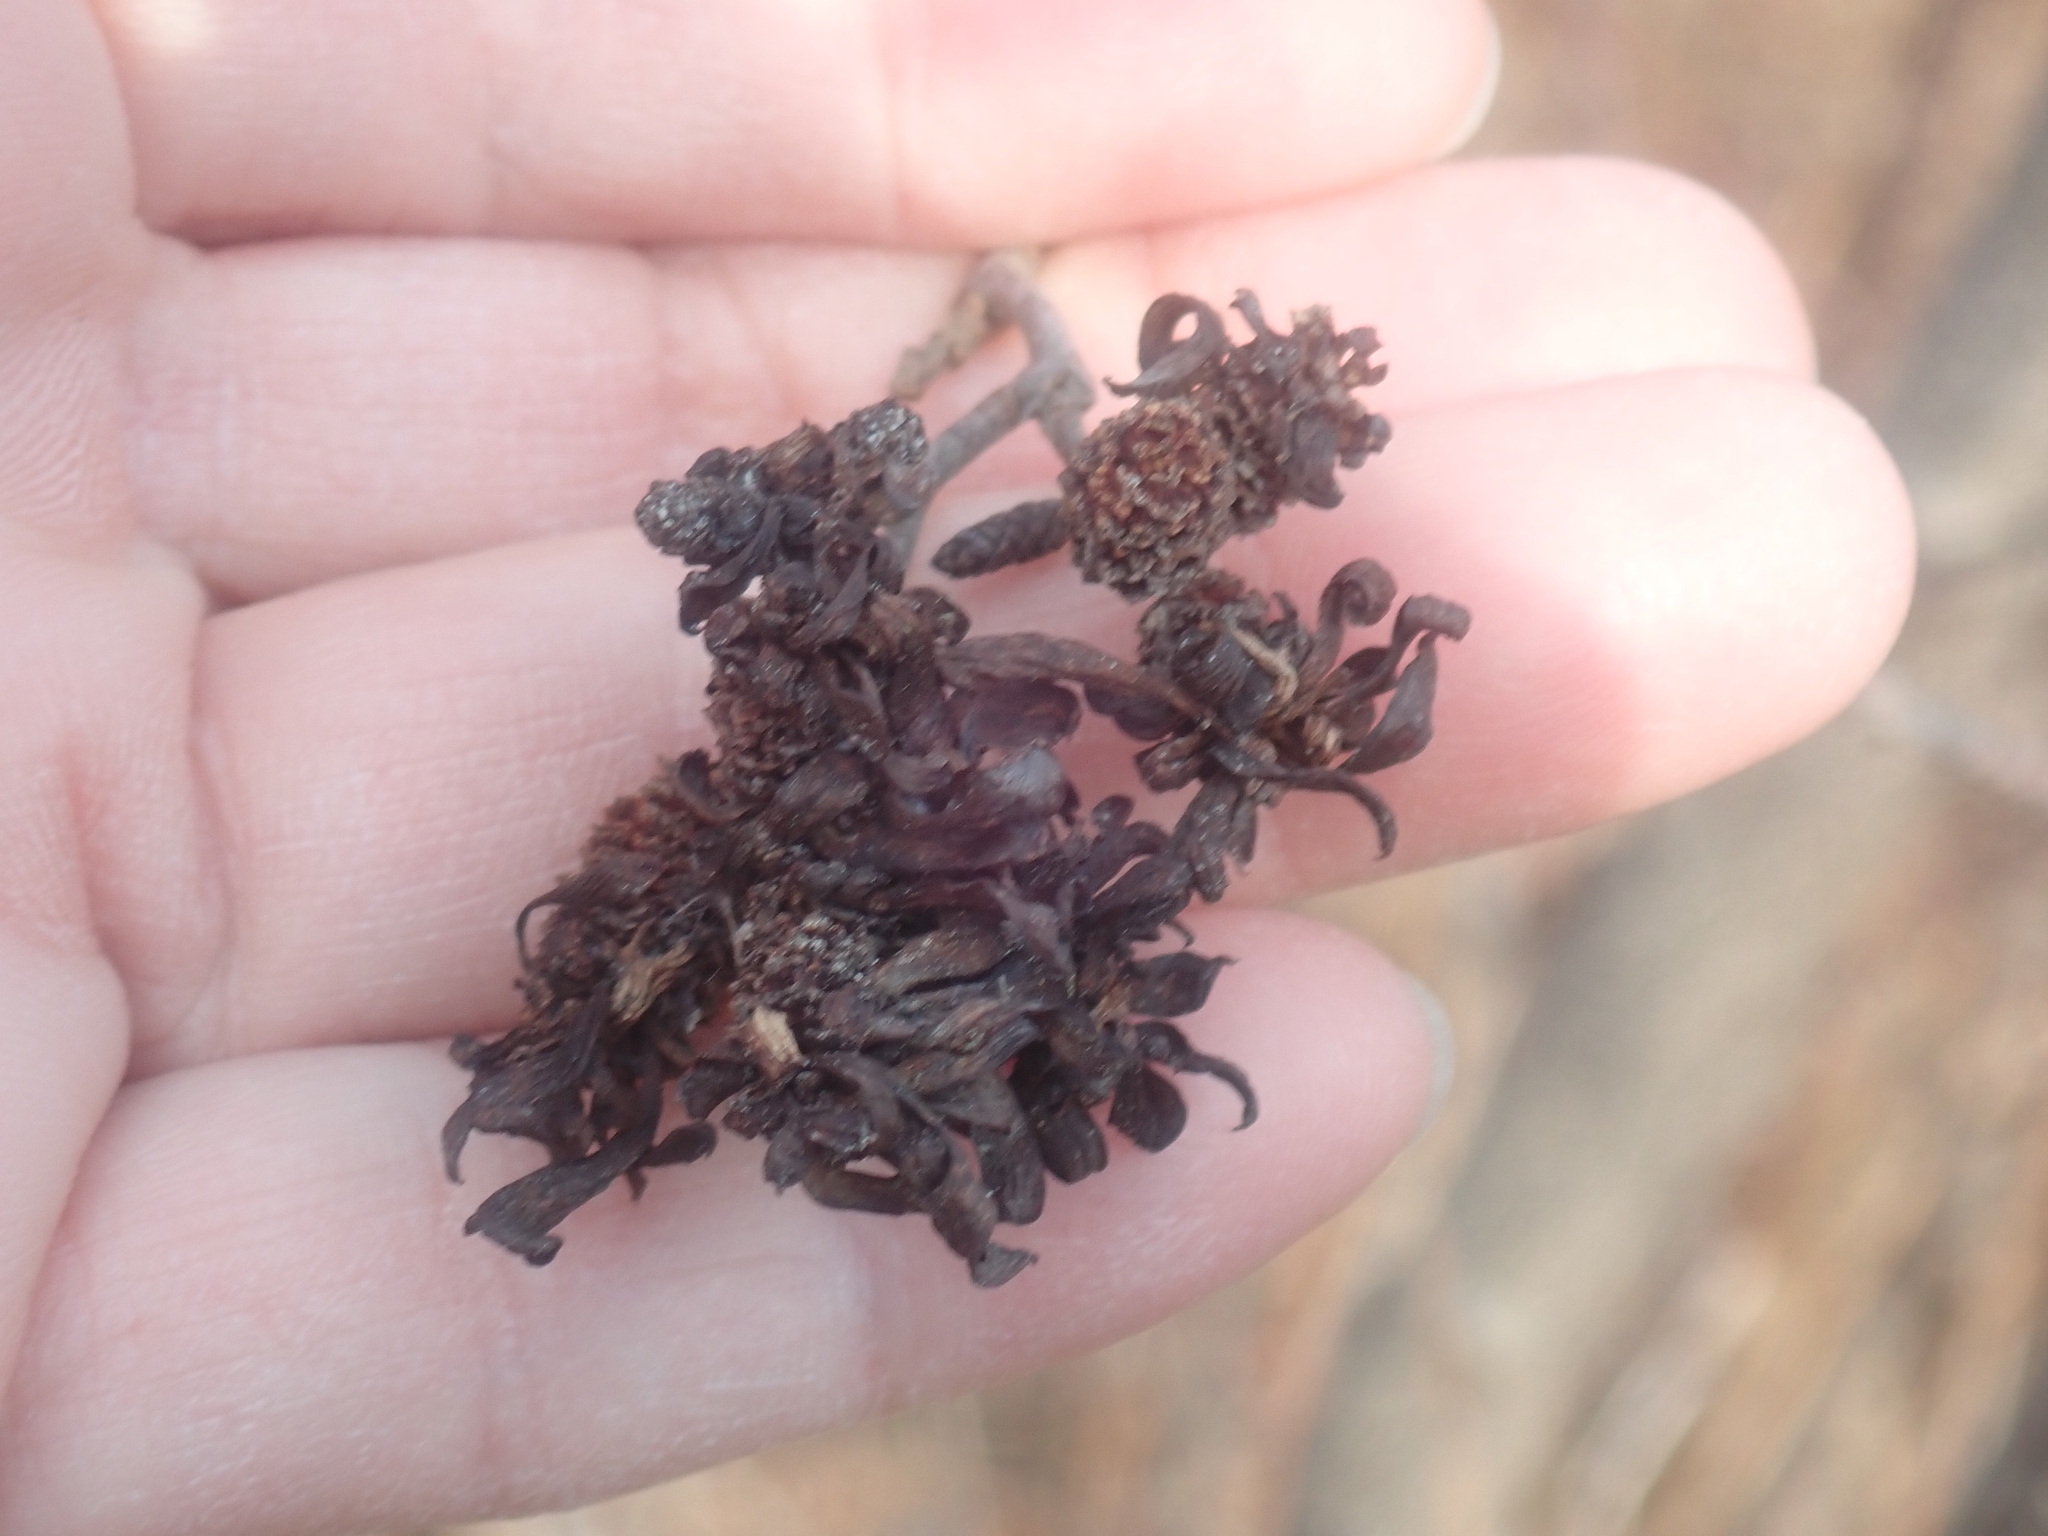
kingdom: Fungi
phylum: Ascomycota
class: Taphrinomycetes
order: Taphrinales
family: Taphrinaceae
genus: Taphrina
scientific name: Taphrina robinsoniana
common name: Eastern american alder tongue gall fungus
